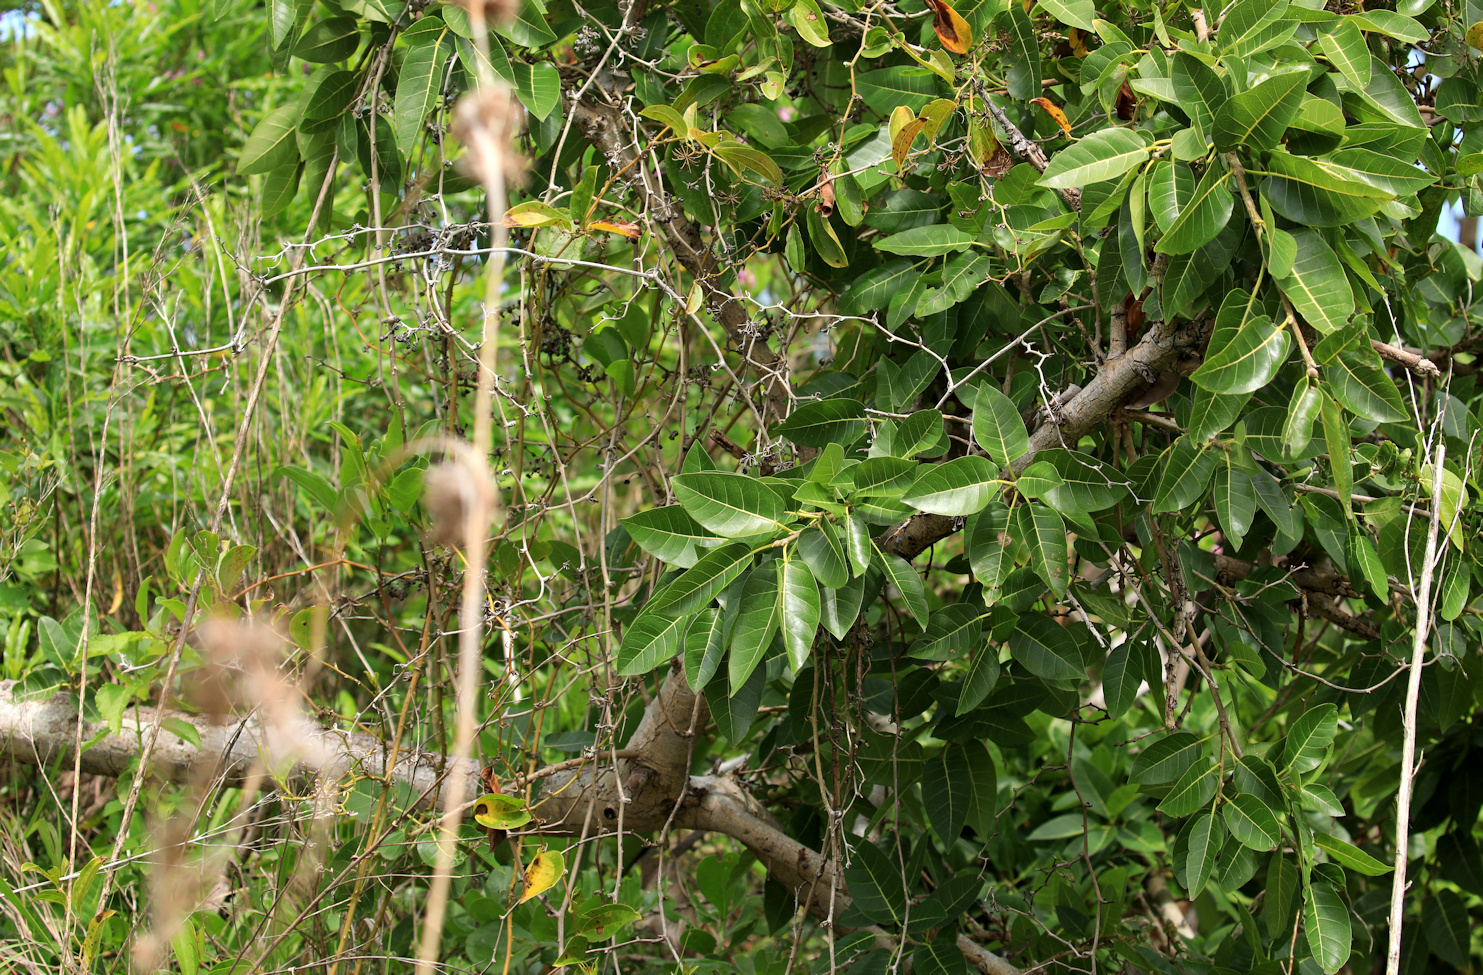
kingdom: Plantae
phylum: Tracheophyta
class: Magnoliopsida
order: Rosales
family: Moraceae
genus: Ficus
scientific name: Ficus ingens
